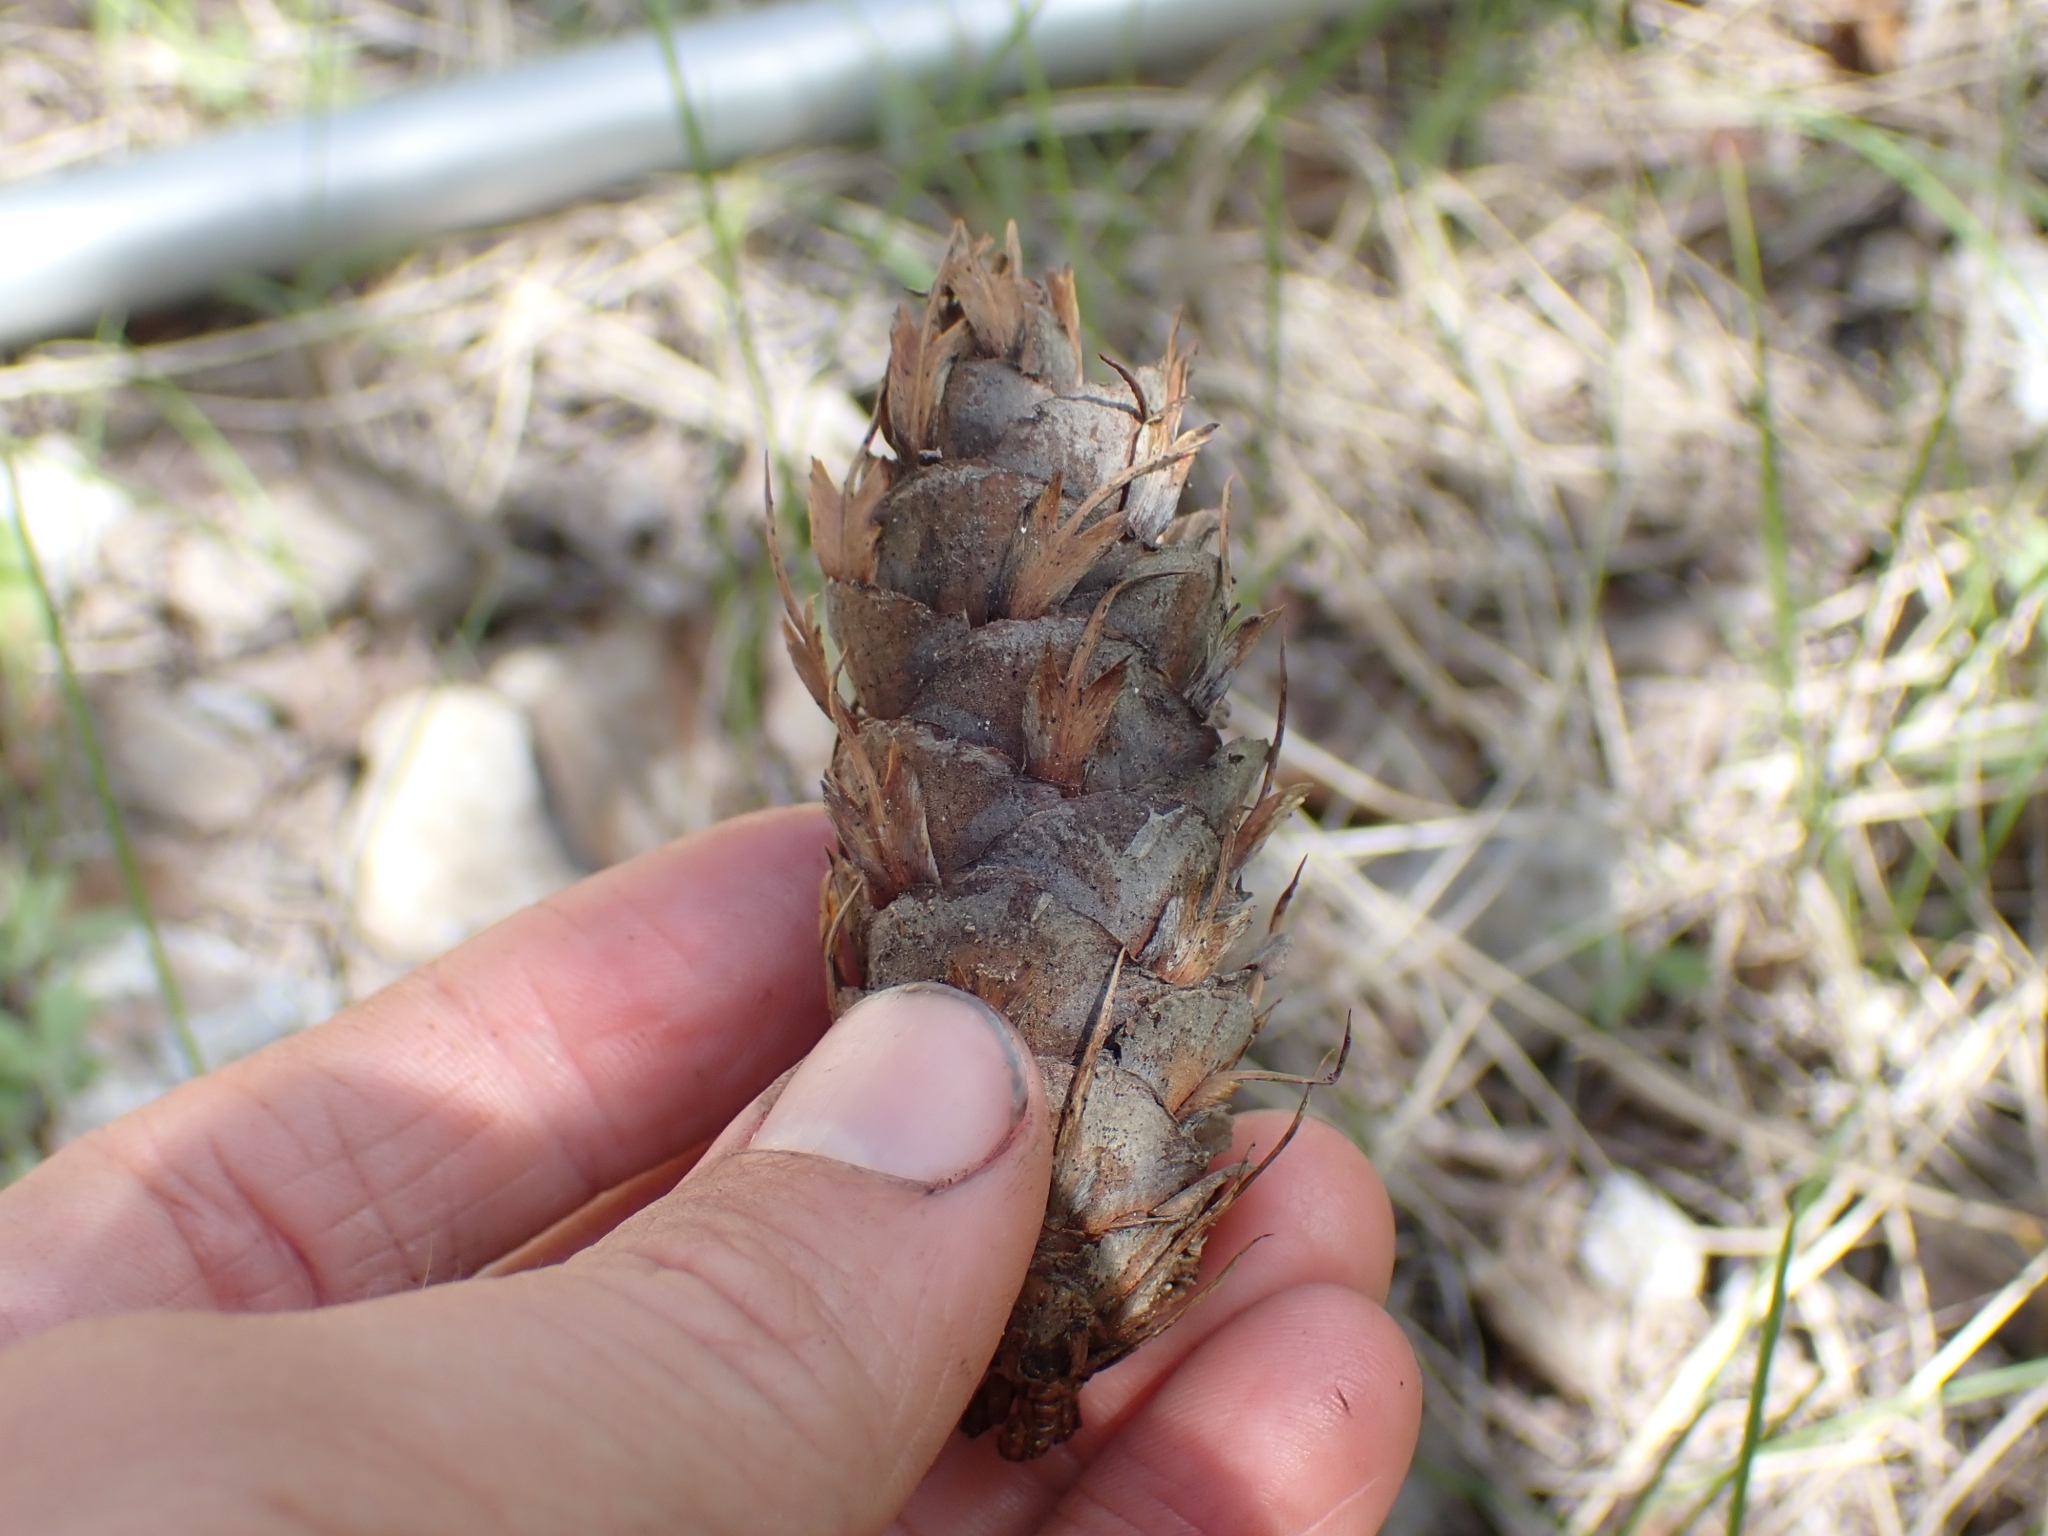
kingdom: Plantae
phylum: Tracheophyta
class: Pinopsida
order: Pinales
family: Pinaceae
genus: Pseudotsuga
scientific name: Pseudotsuga menziesii
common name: Douglas fir
